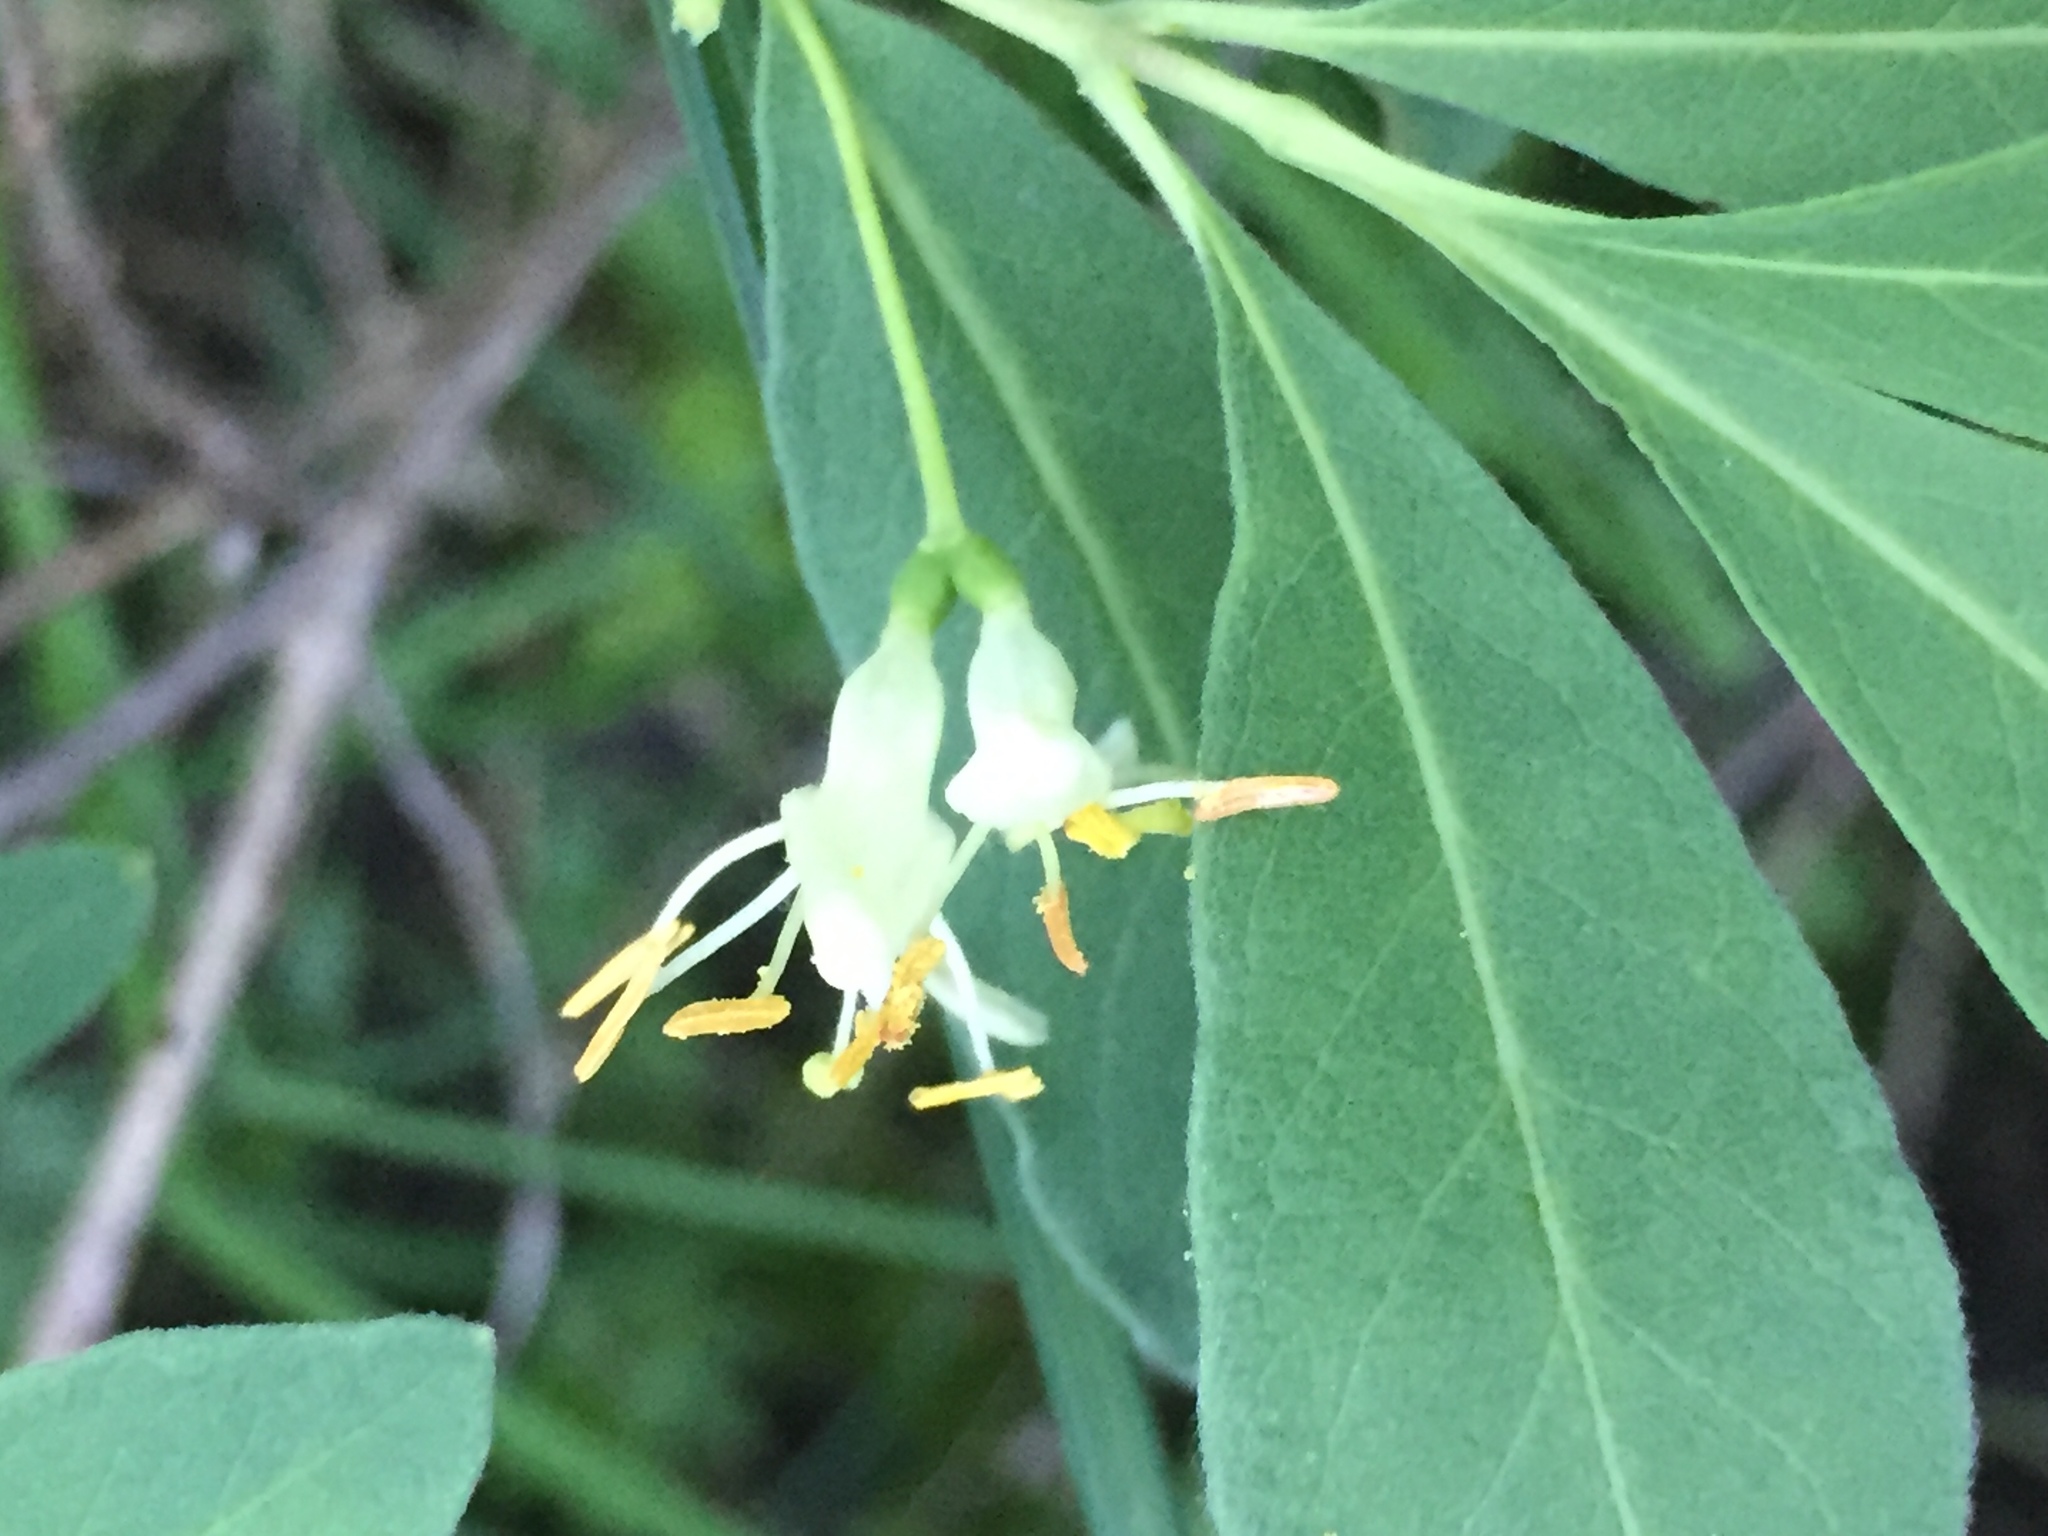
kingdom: Plantae
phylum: Tracheophyta
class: Magnoliopsida
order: Dipsacales
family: Caprifoliaceae
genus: Lonicera
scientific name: Lonicera oblongifolia
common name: Swamp fly honeysuckle
